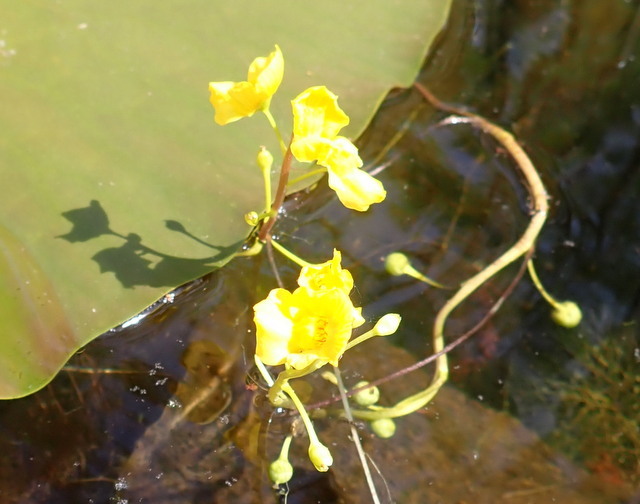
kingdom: Plantae
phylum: Tracheophyta
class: Magnoliopsida
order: Lamiales
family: Lentibulariaceae
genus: Utricularia
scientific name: Utricularia floridana
